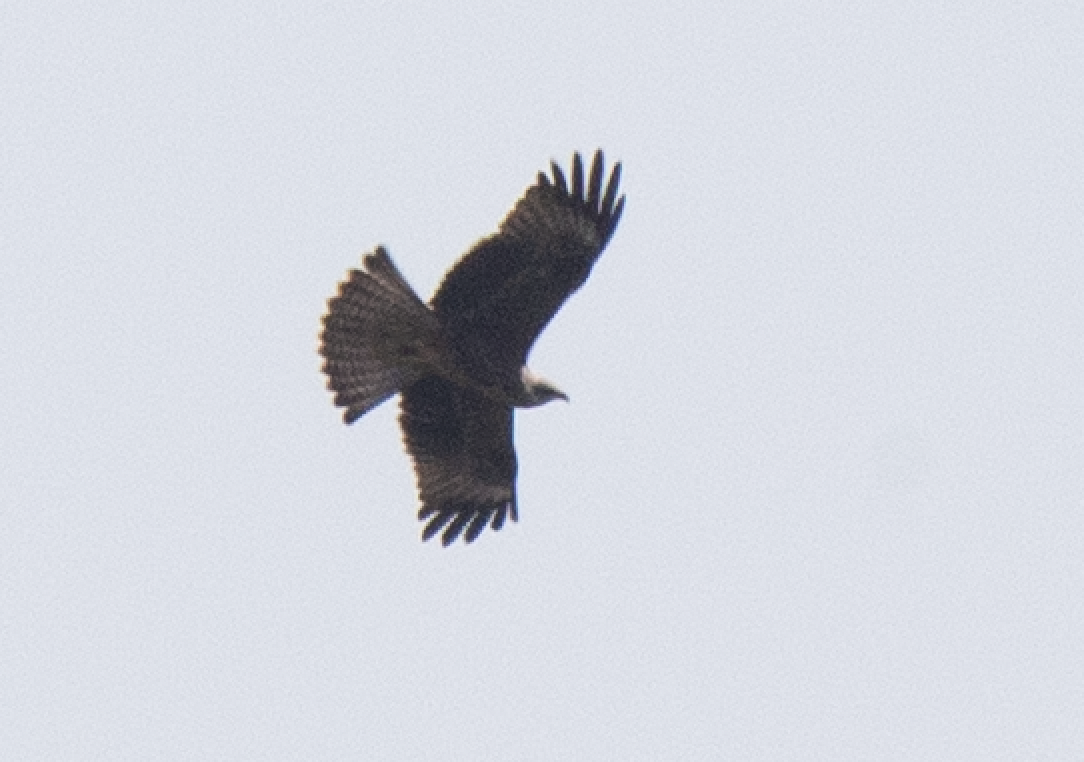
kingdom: Animalia
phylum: Chordata
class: Aves
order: Accipitriformes
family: Accipitridae
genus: Milvus
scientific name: Milvus migrans
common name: Black kite
